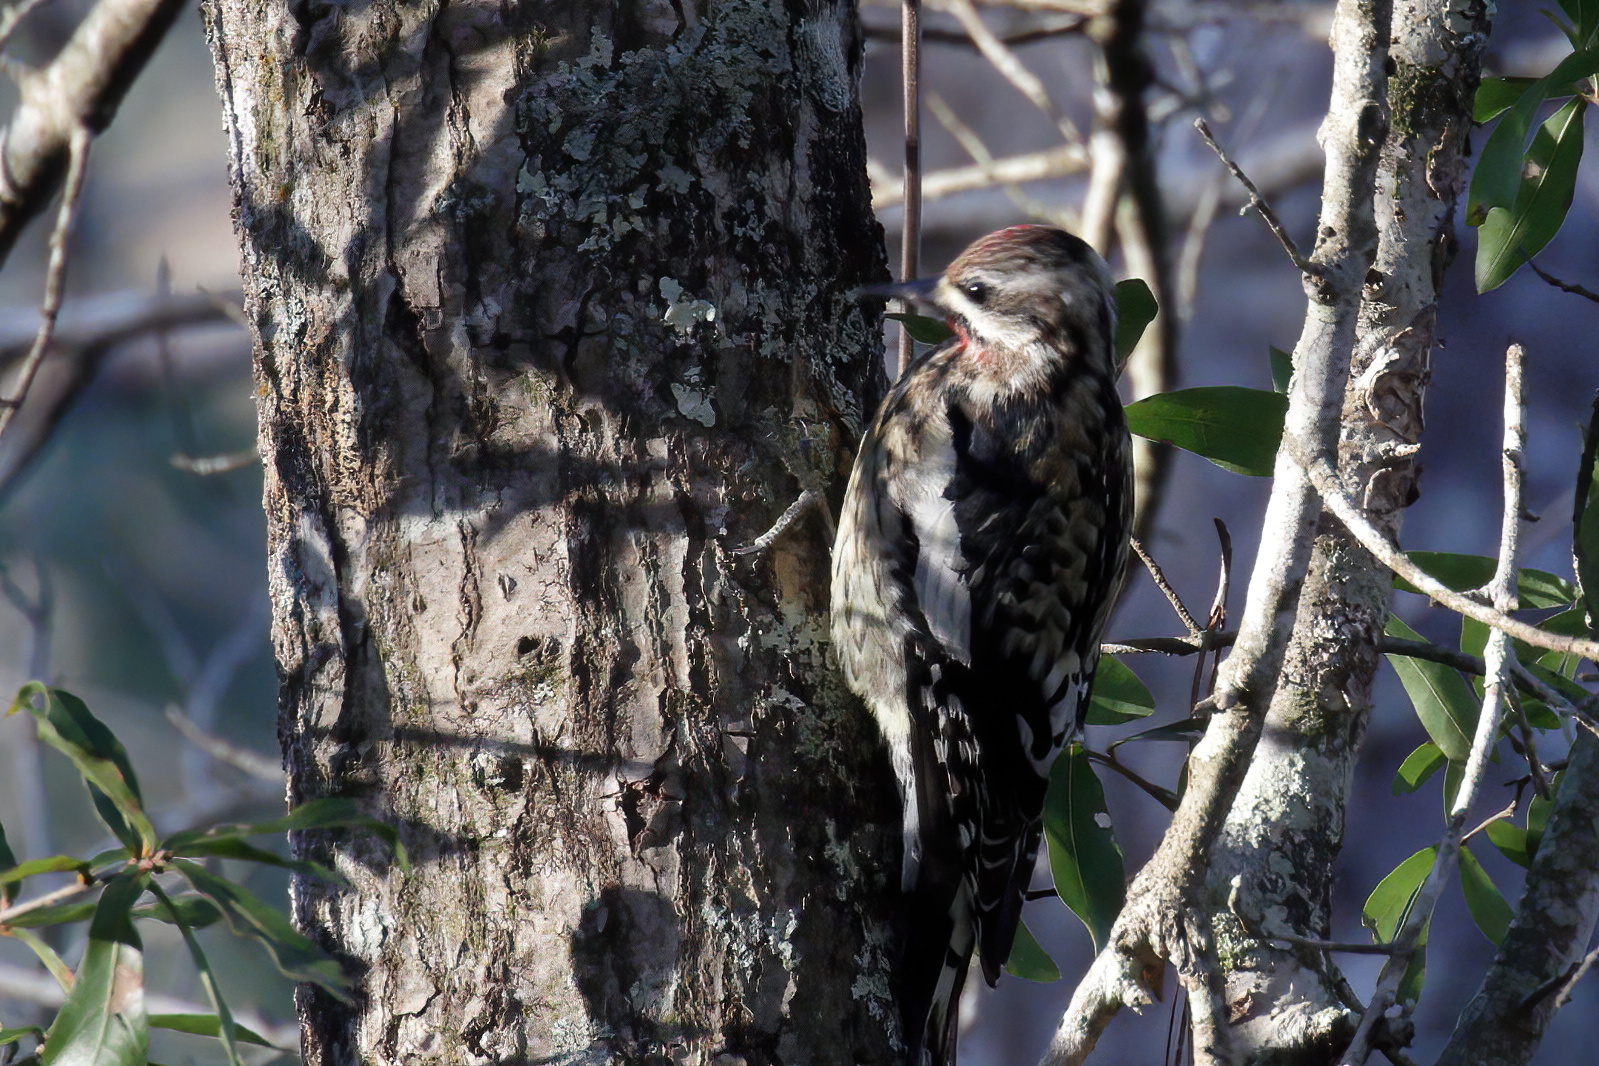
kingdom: Animalia
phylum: Chordata
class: Aves
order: Piciformes
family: Picidae
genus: Sphyrapicus
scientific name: Sphyrapicus varius
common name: Yellow-bellied sapsucker
